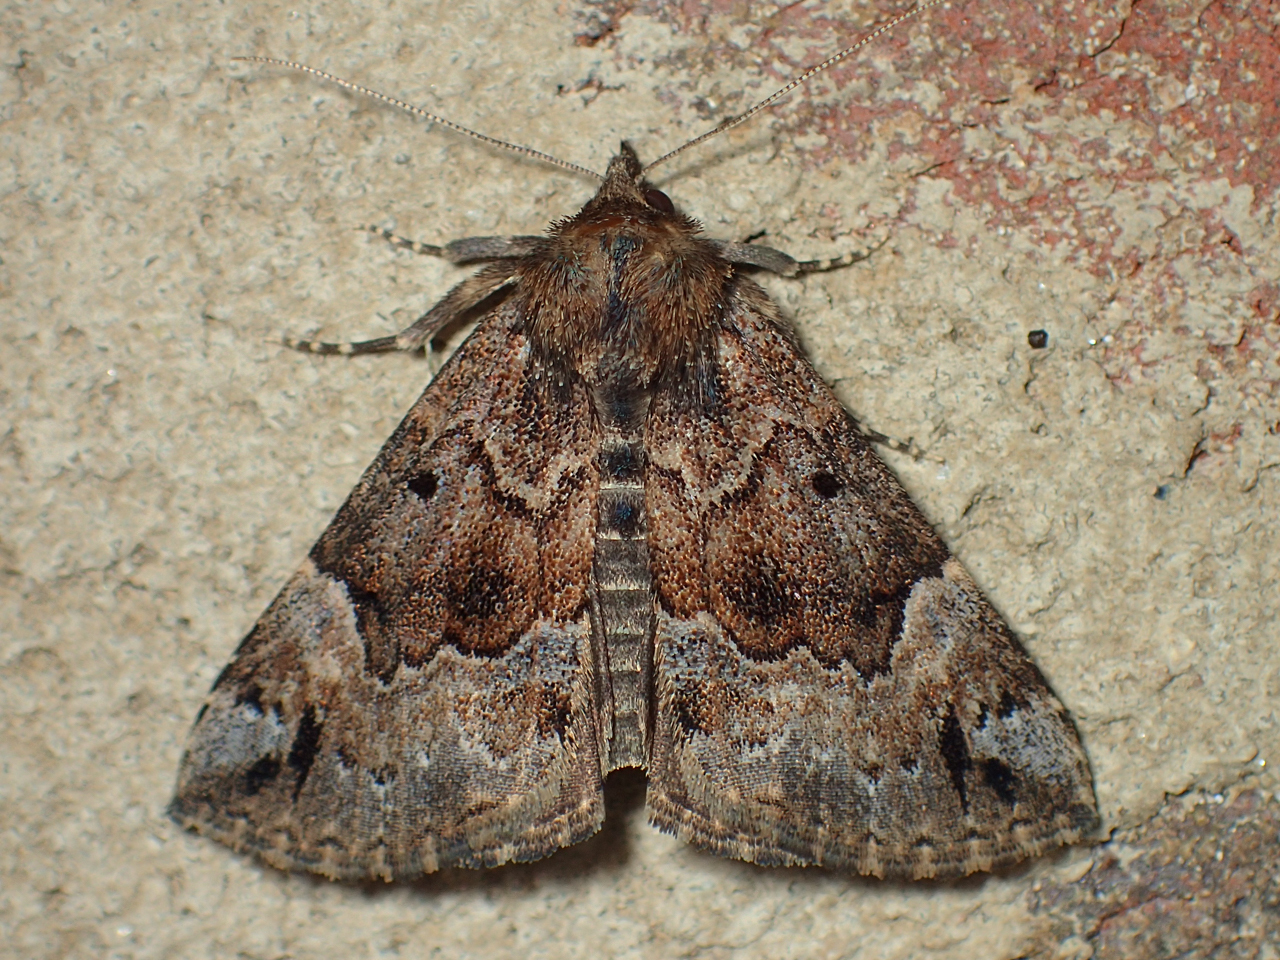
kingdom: Animalia
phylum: Arthropoda
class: Insecta
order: Lepidoptera
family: Erebidae
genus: Hypena
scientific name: Hypena palparia
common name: Mottled bomolocha moth
